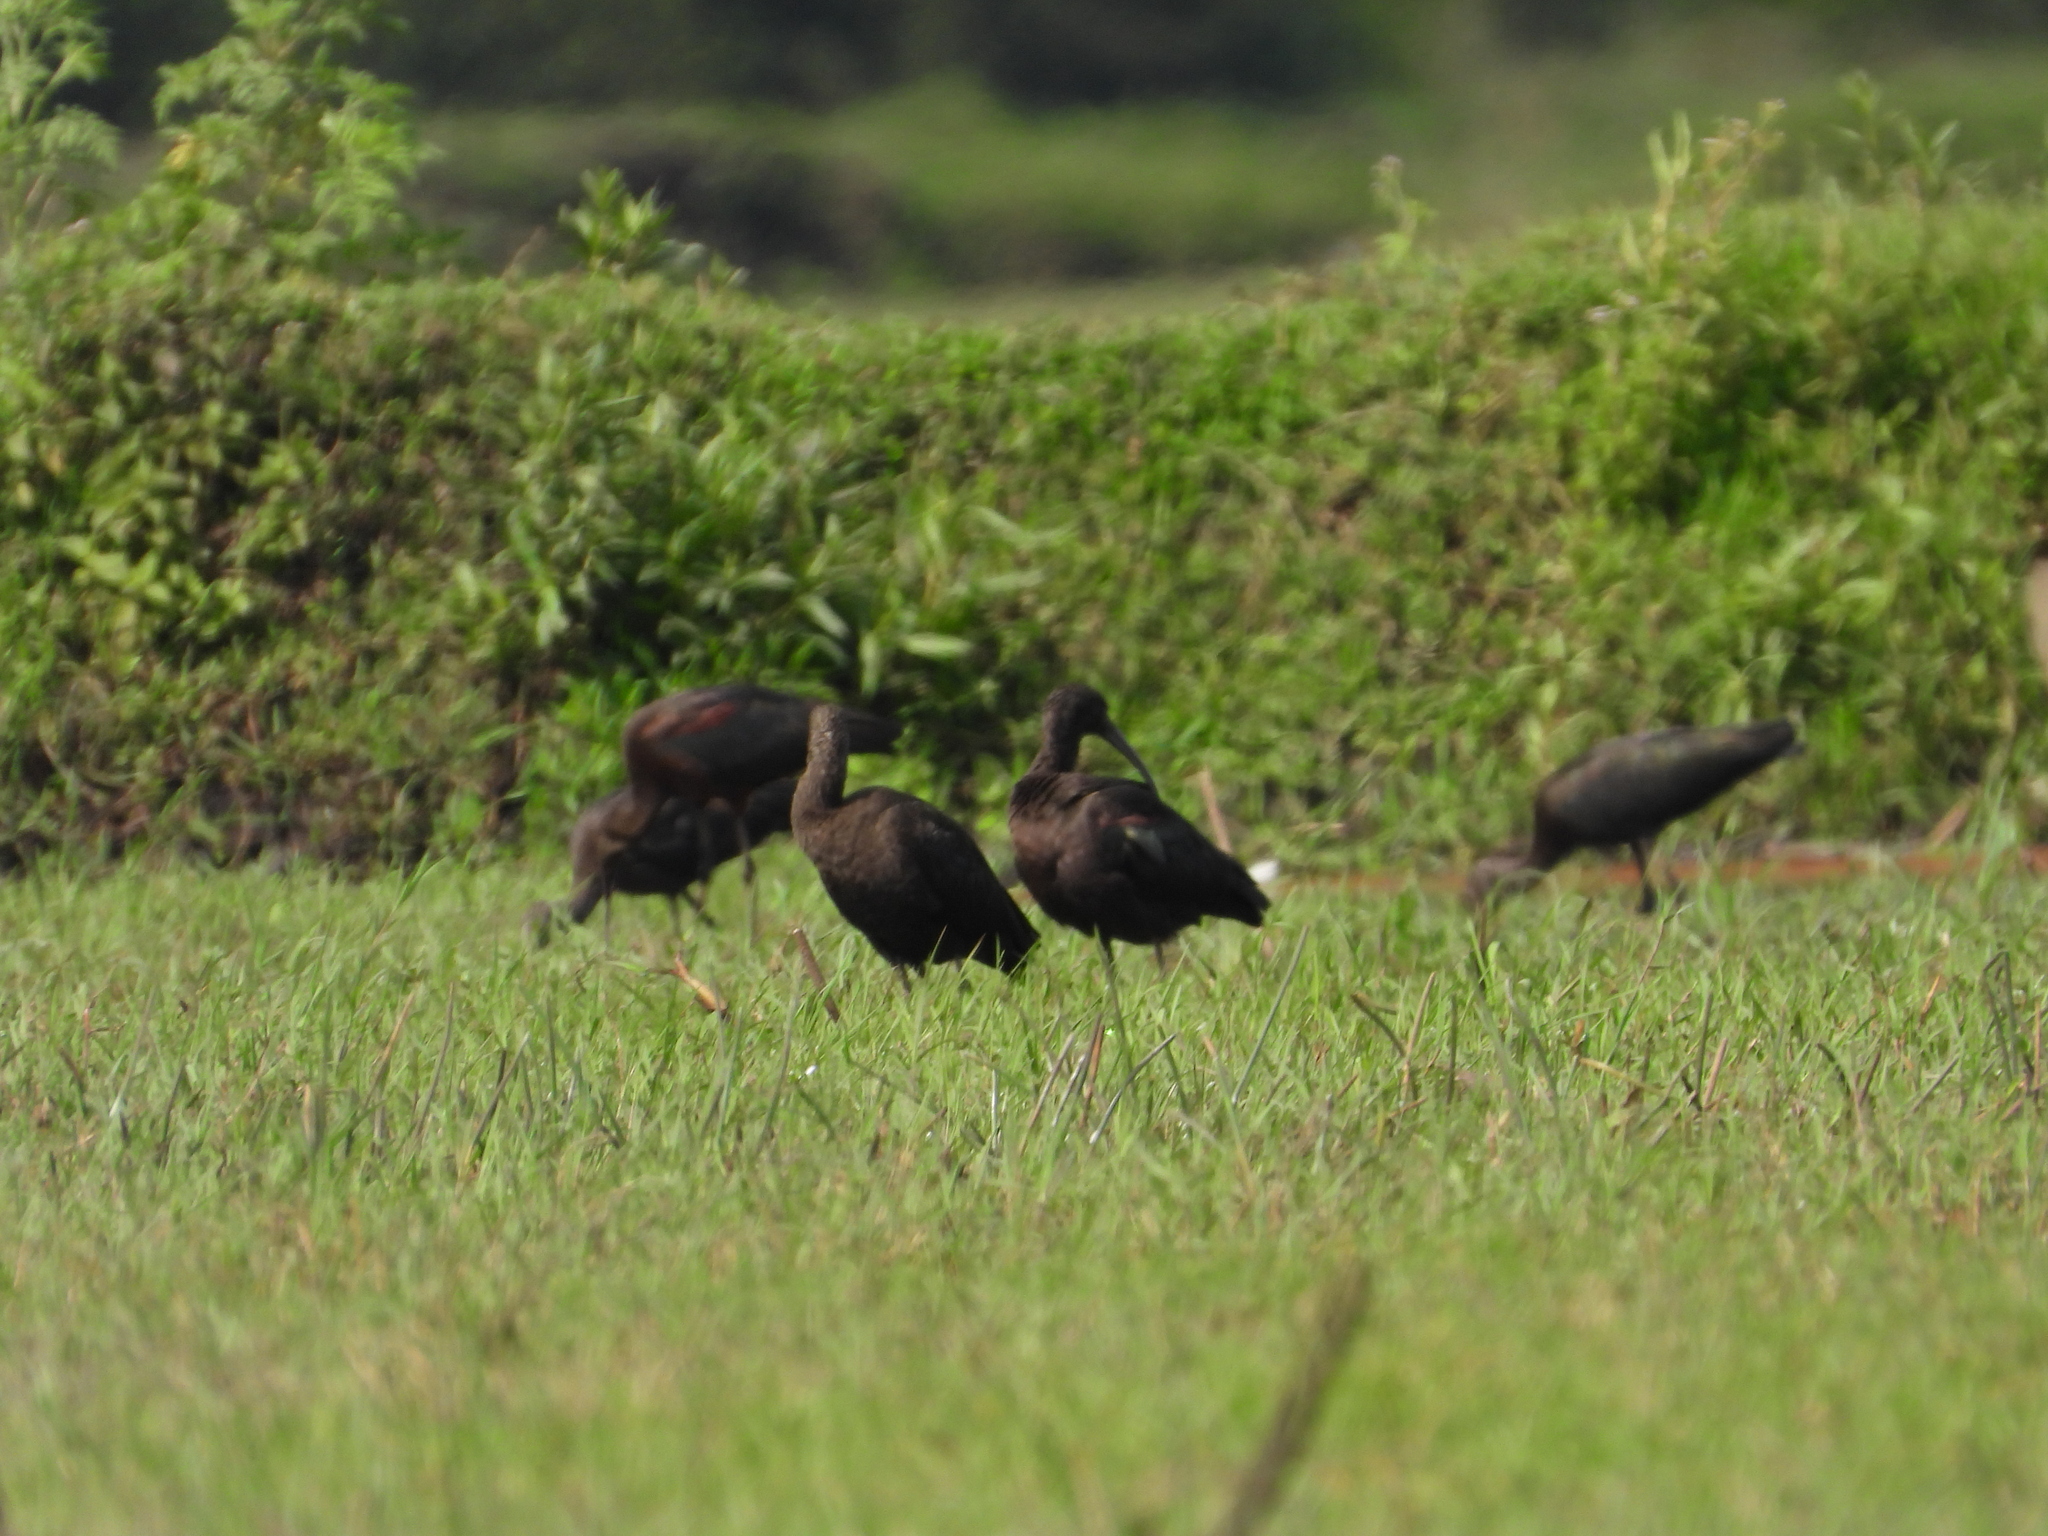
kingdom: Animalia
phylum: Chordata
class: Aves
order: Pelecaniformes
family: Threskiornithidae
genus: Plegadis
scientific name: Plegadis falcinellus
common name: Glossy ibis
